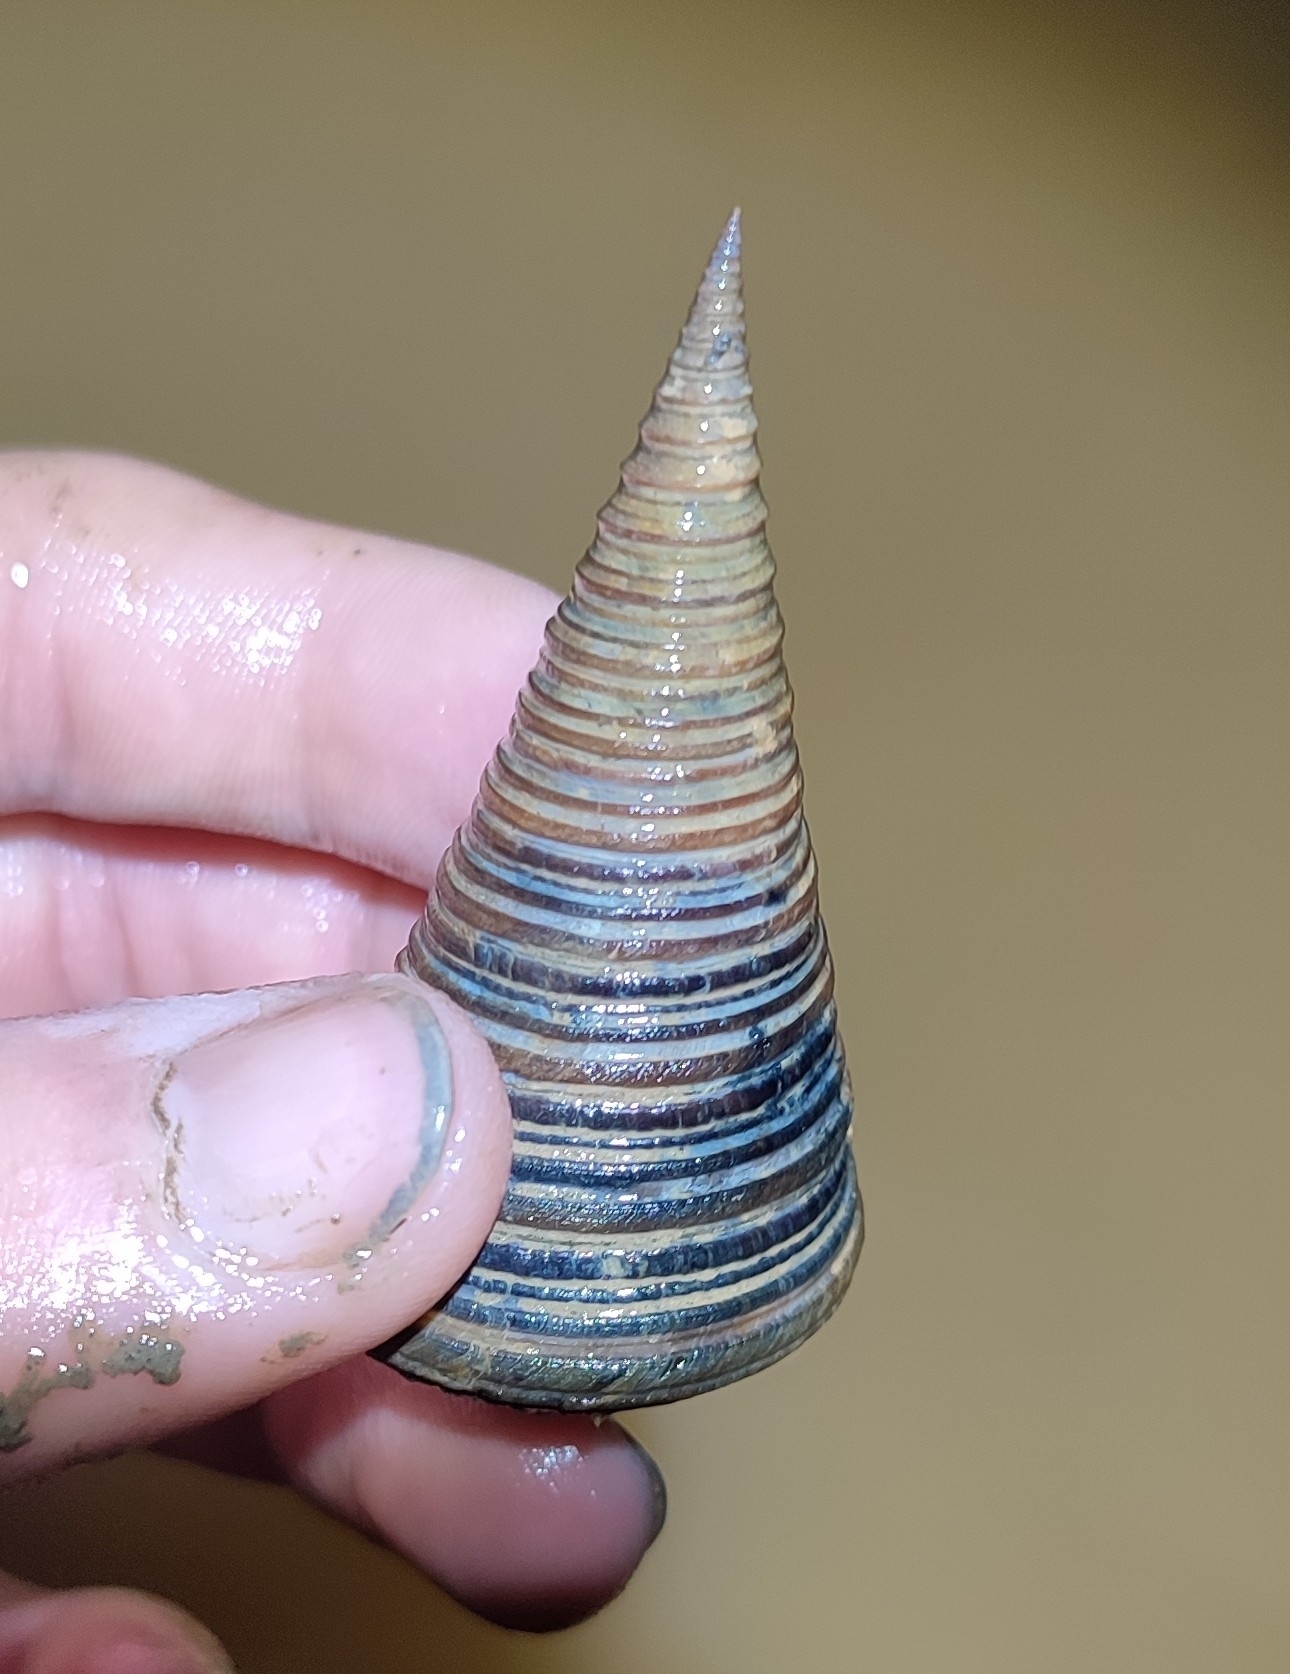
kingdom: Animalia
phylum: Mollusca
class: Gastropoda
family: Potamididae
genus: Telescopium
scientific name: Telescopium telescopium
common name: Telescope creeper
